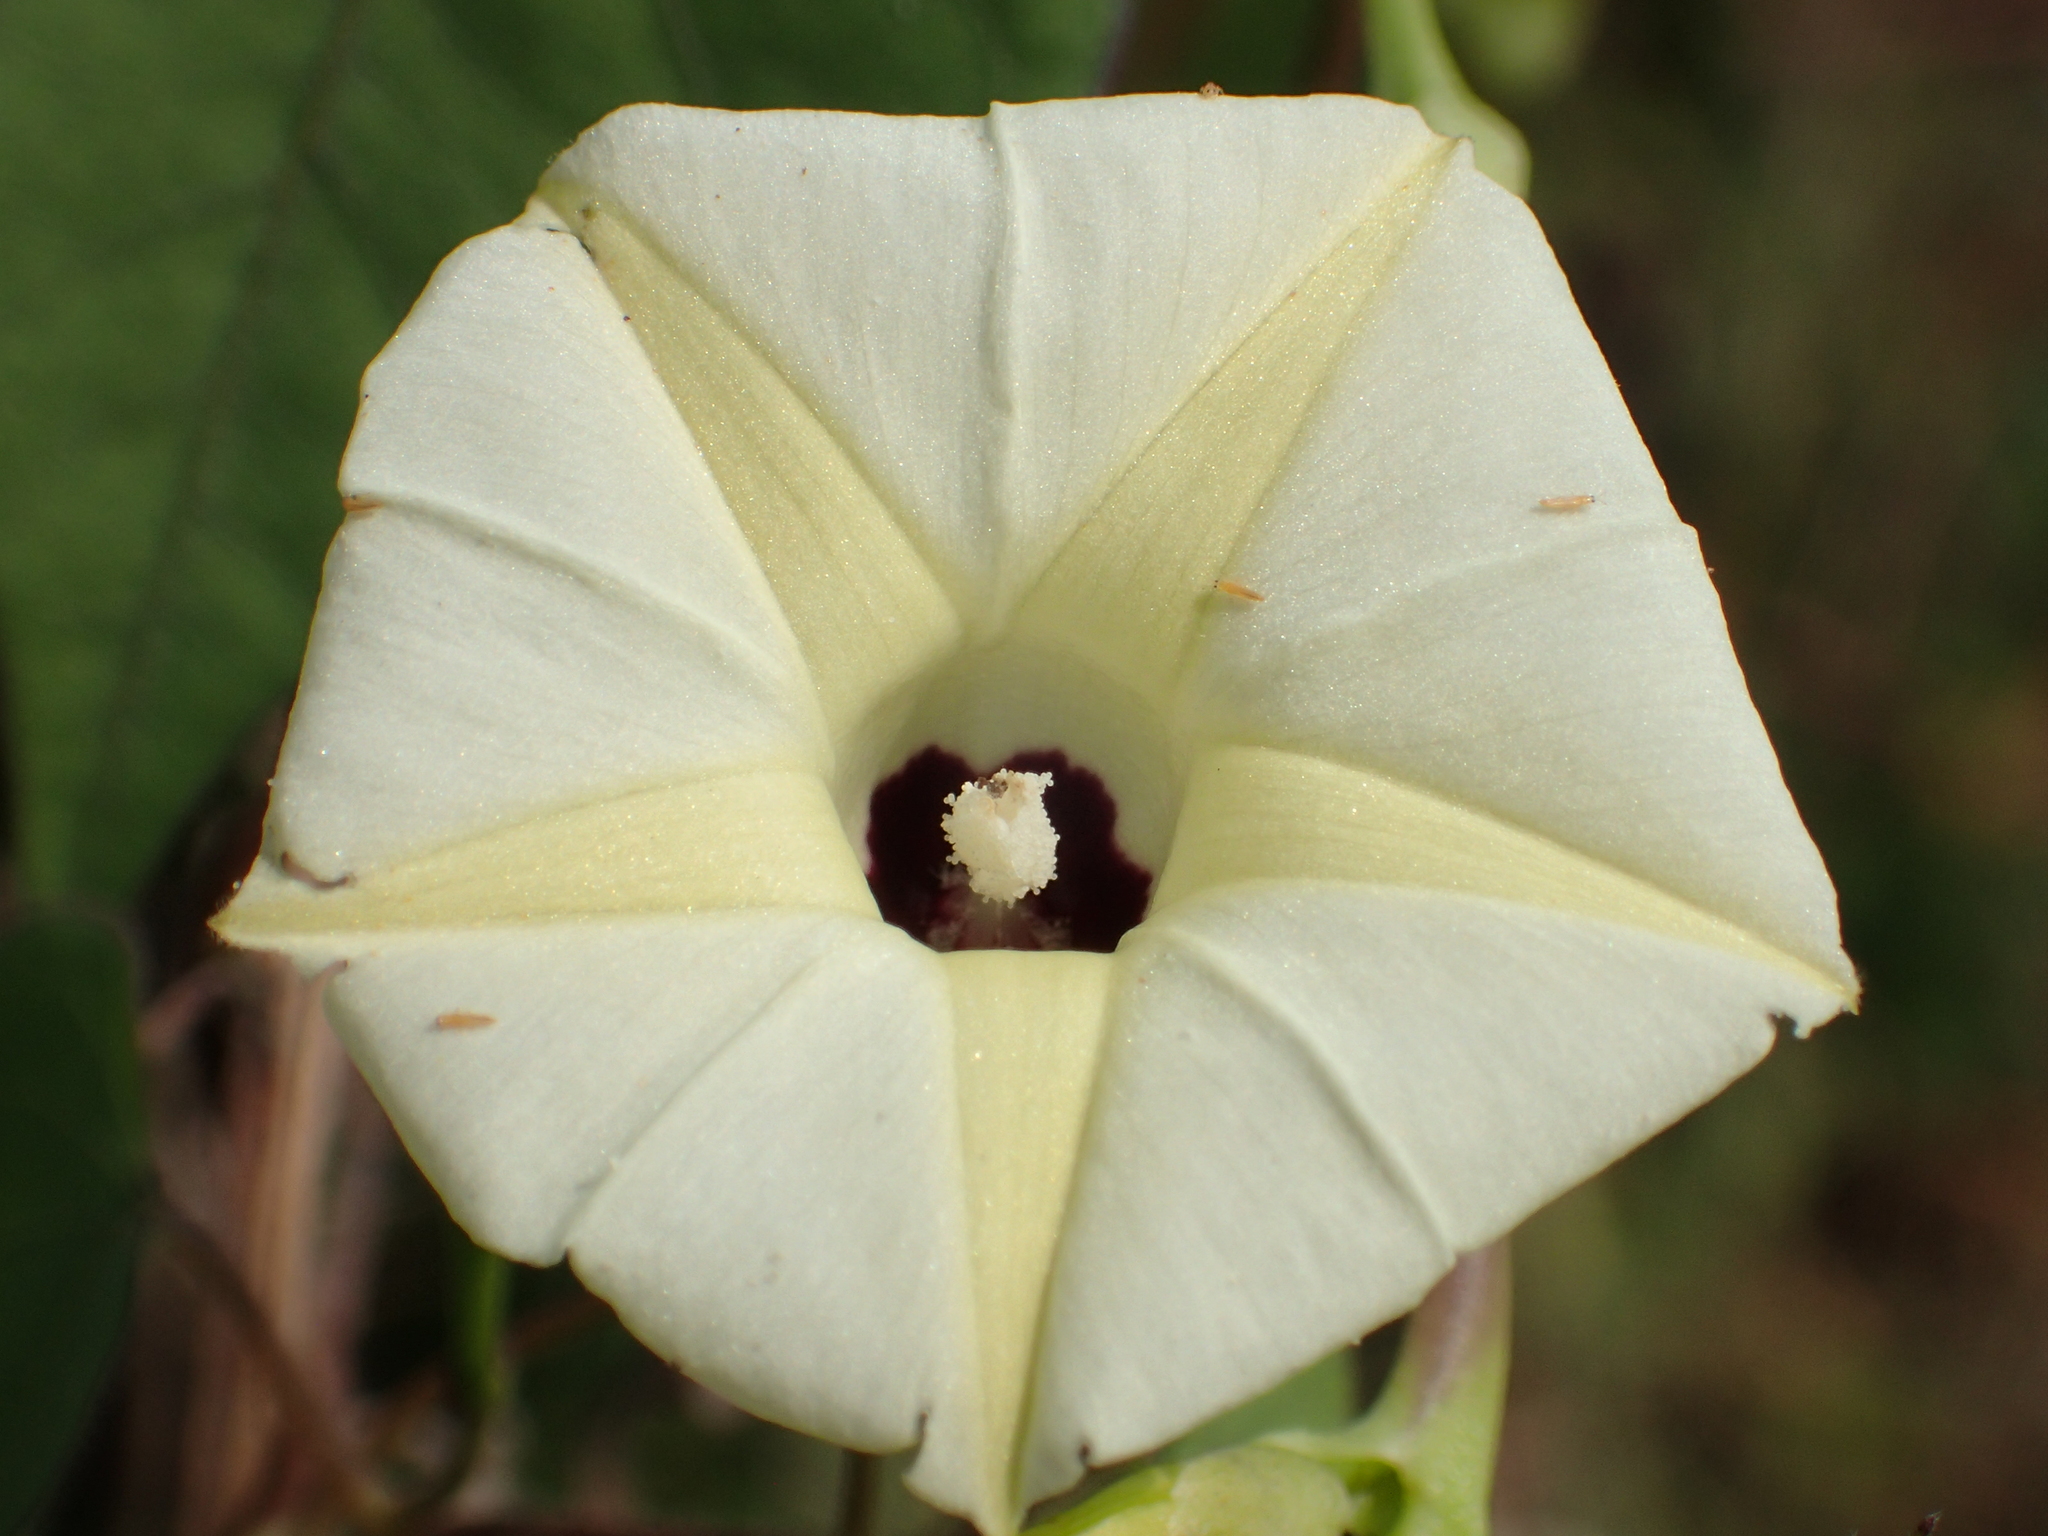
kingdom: Plantae
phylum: Tracheophyta
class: Magnoliopsida
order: Solanales
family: Convolvulaceae
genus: Ipomoea
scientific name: Ipomoea obscura
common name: Obscure morning-glory
